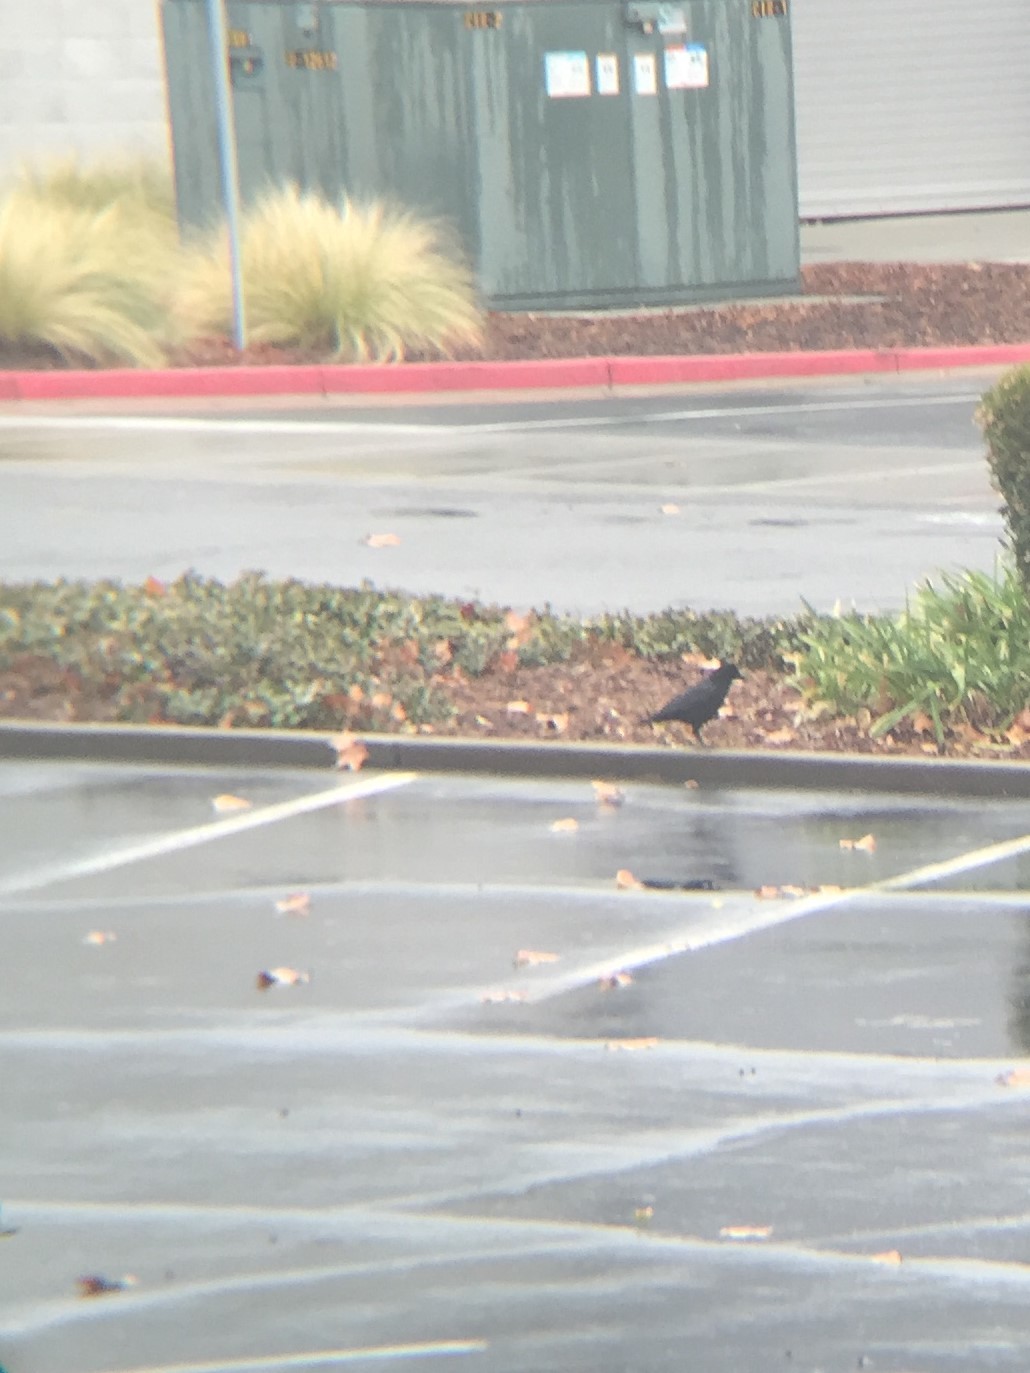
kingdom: Animalia
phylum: Chordata
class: Aves
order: Passeriformes
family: Corvidae
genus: Corvus
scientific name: Corvus brachyrhynchos
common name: American crow
